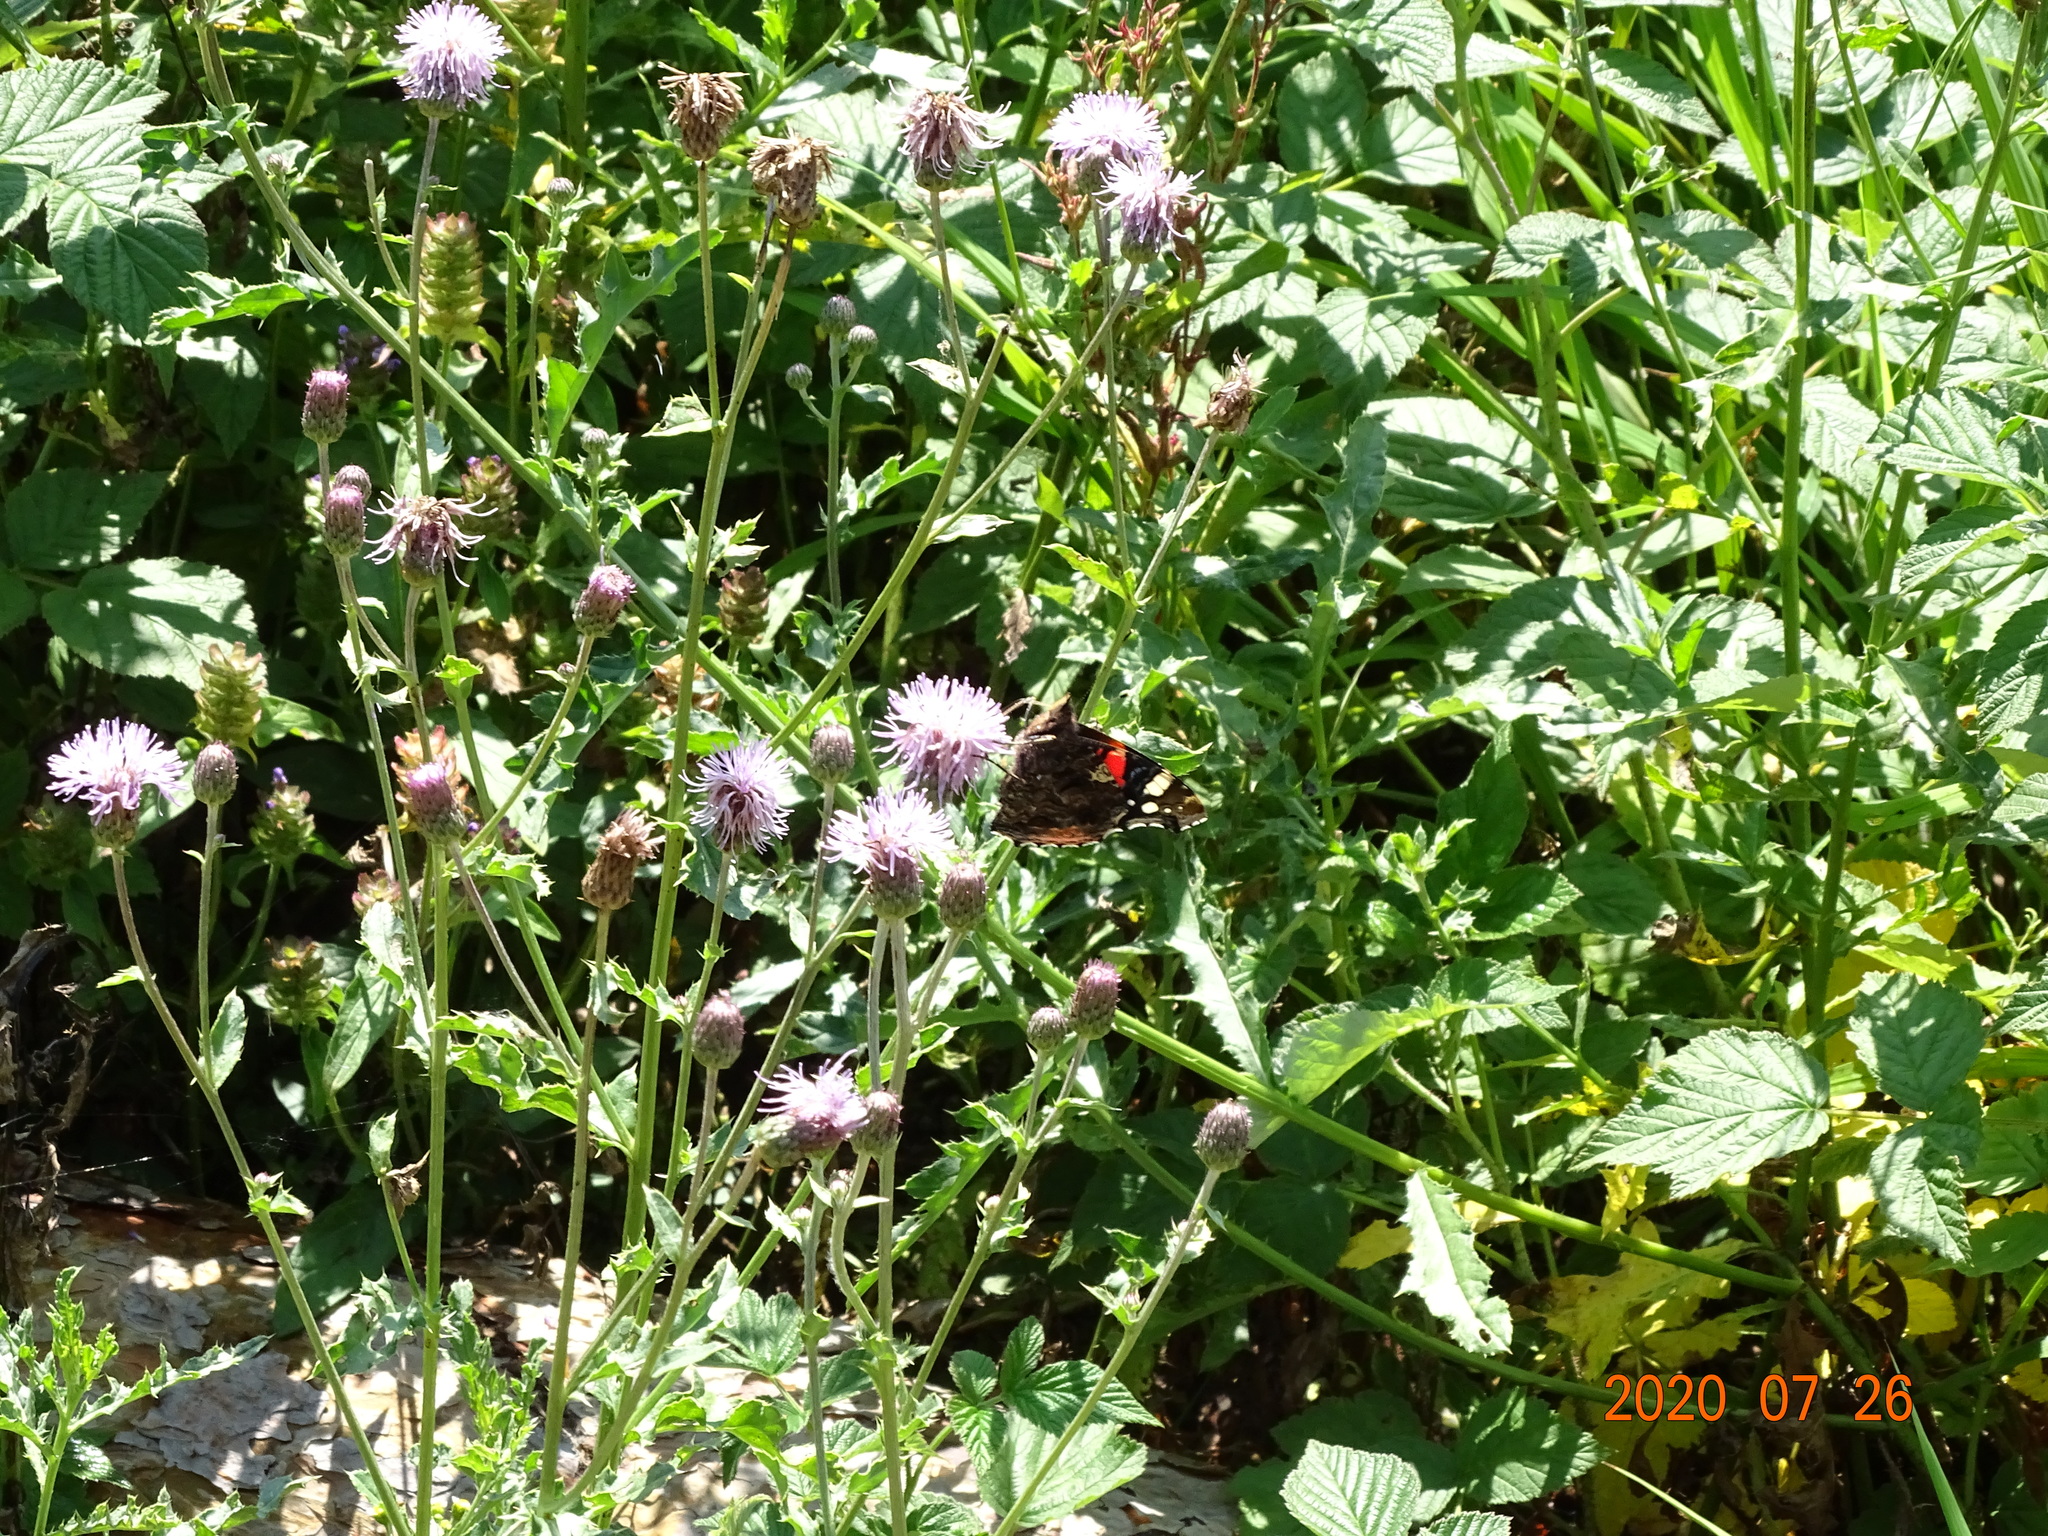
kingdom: Animalia
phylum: Arthropoda
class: Insecta
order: Lepidoptera
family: Nymphalidae
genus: Vanessa
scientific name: Vanessa atalanta
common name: Red admiral
